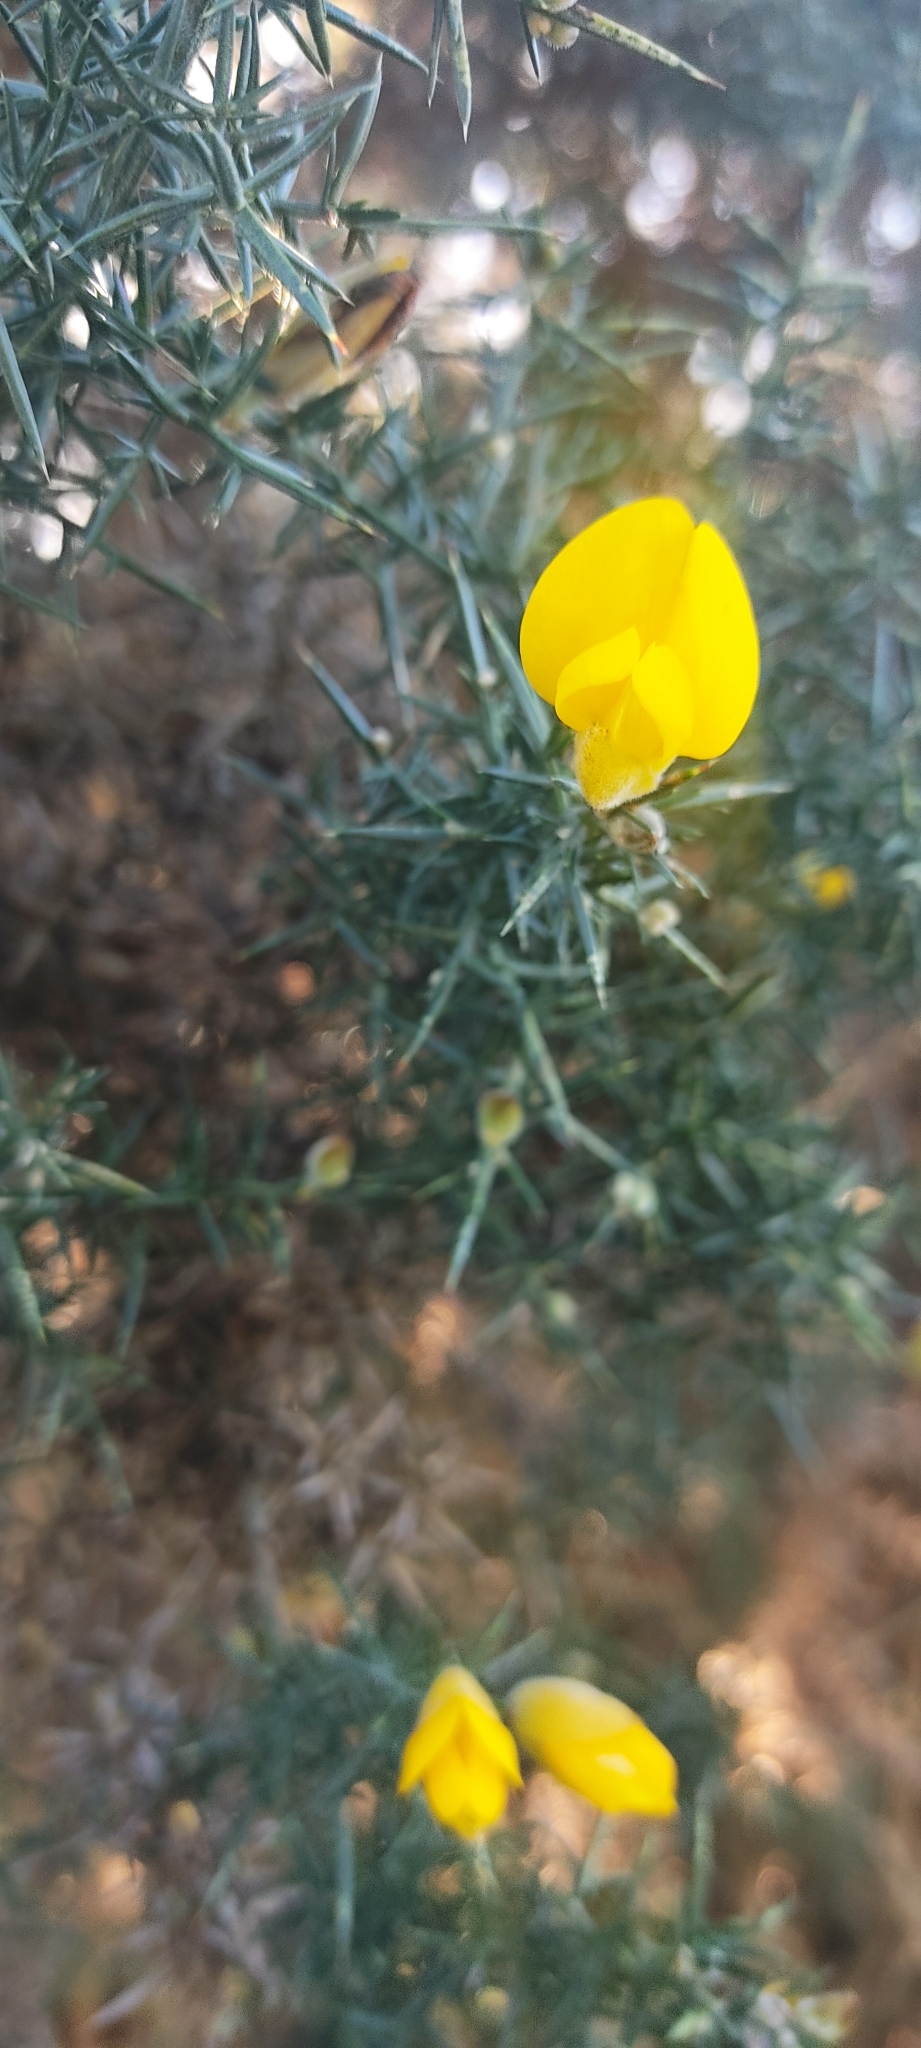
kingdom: Plantae
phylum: Tracheophyta
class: Magnoliopsida
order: Fabales
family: Fabaceae
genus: Ulex
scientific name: Ulex europaeus
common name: Common gorse
